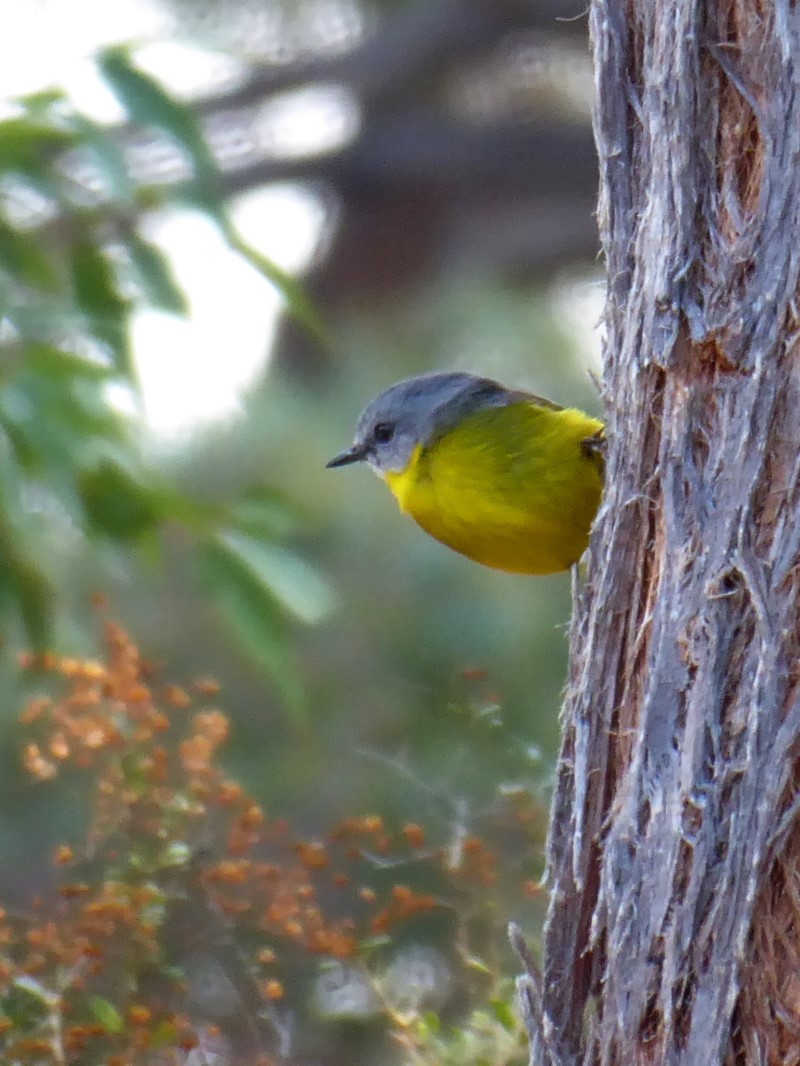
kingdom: Animalia
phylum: Chordata
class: Aves
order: Passeriformes
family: Petroicidae
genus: Eopsaltria
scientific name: Eopsaltria australis
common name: Eastern yellow robin
